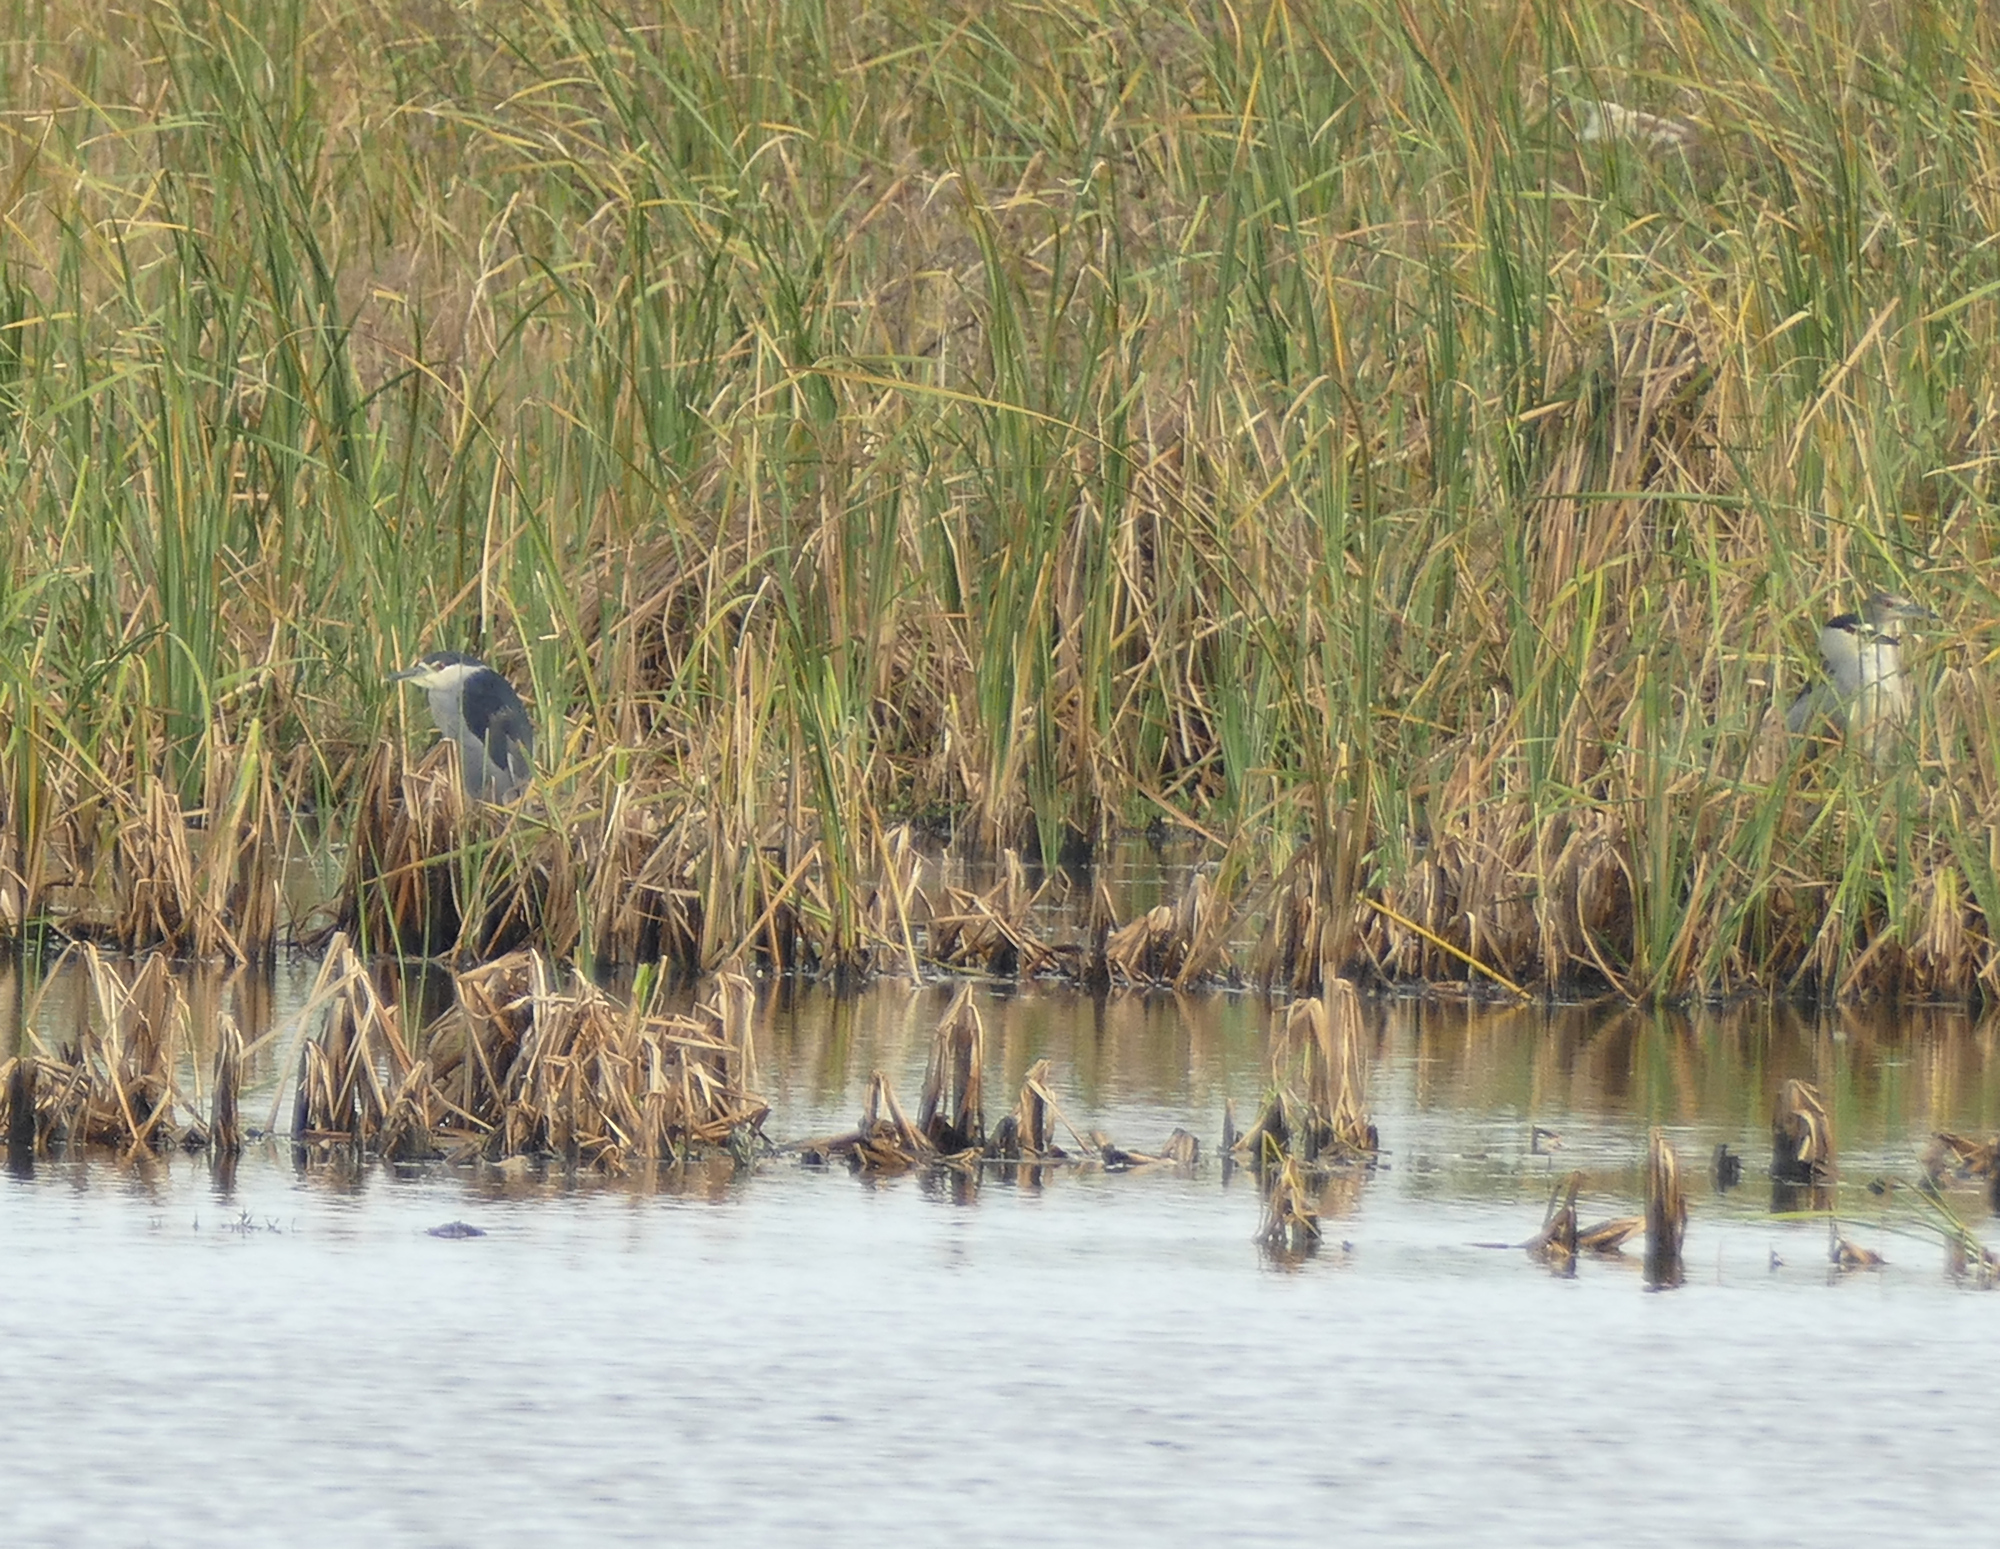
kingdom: Animalia
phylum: Chordata
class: Aves
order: Pelecaniformes
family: Ardeidae
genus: Nycticorax
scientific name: Nycticorax nycticorax
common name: Black-crowned night heron
